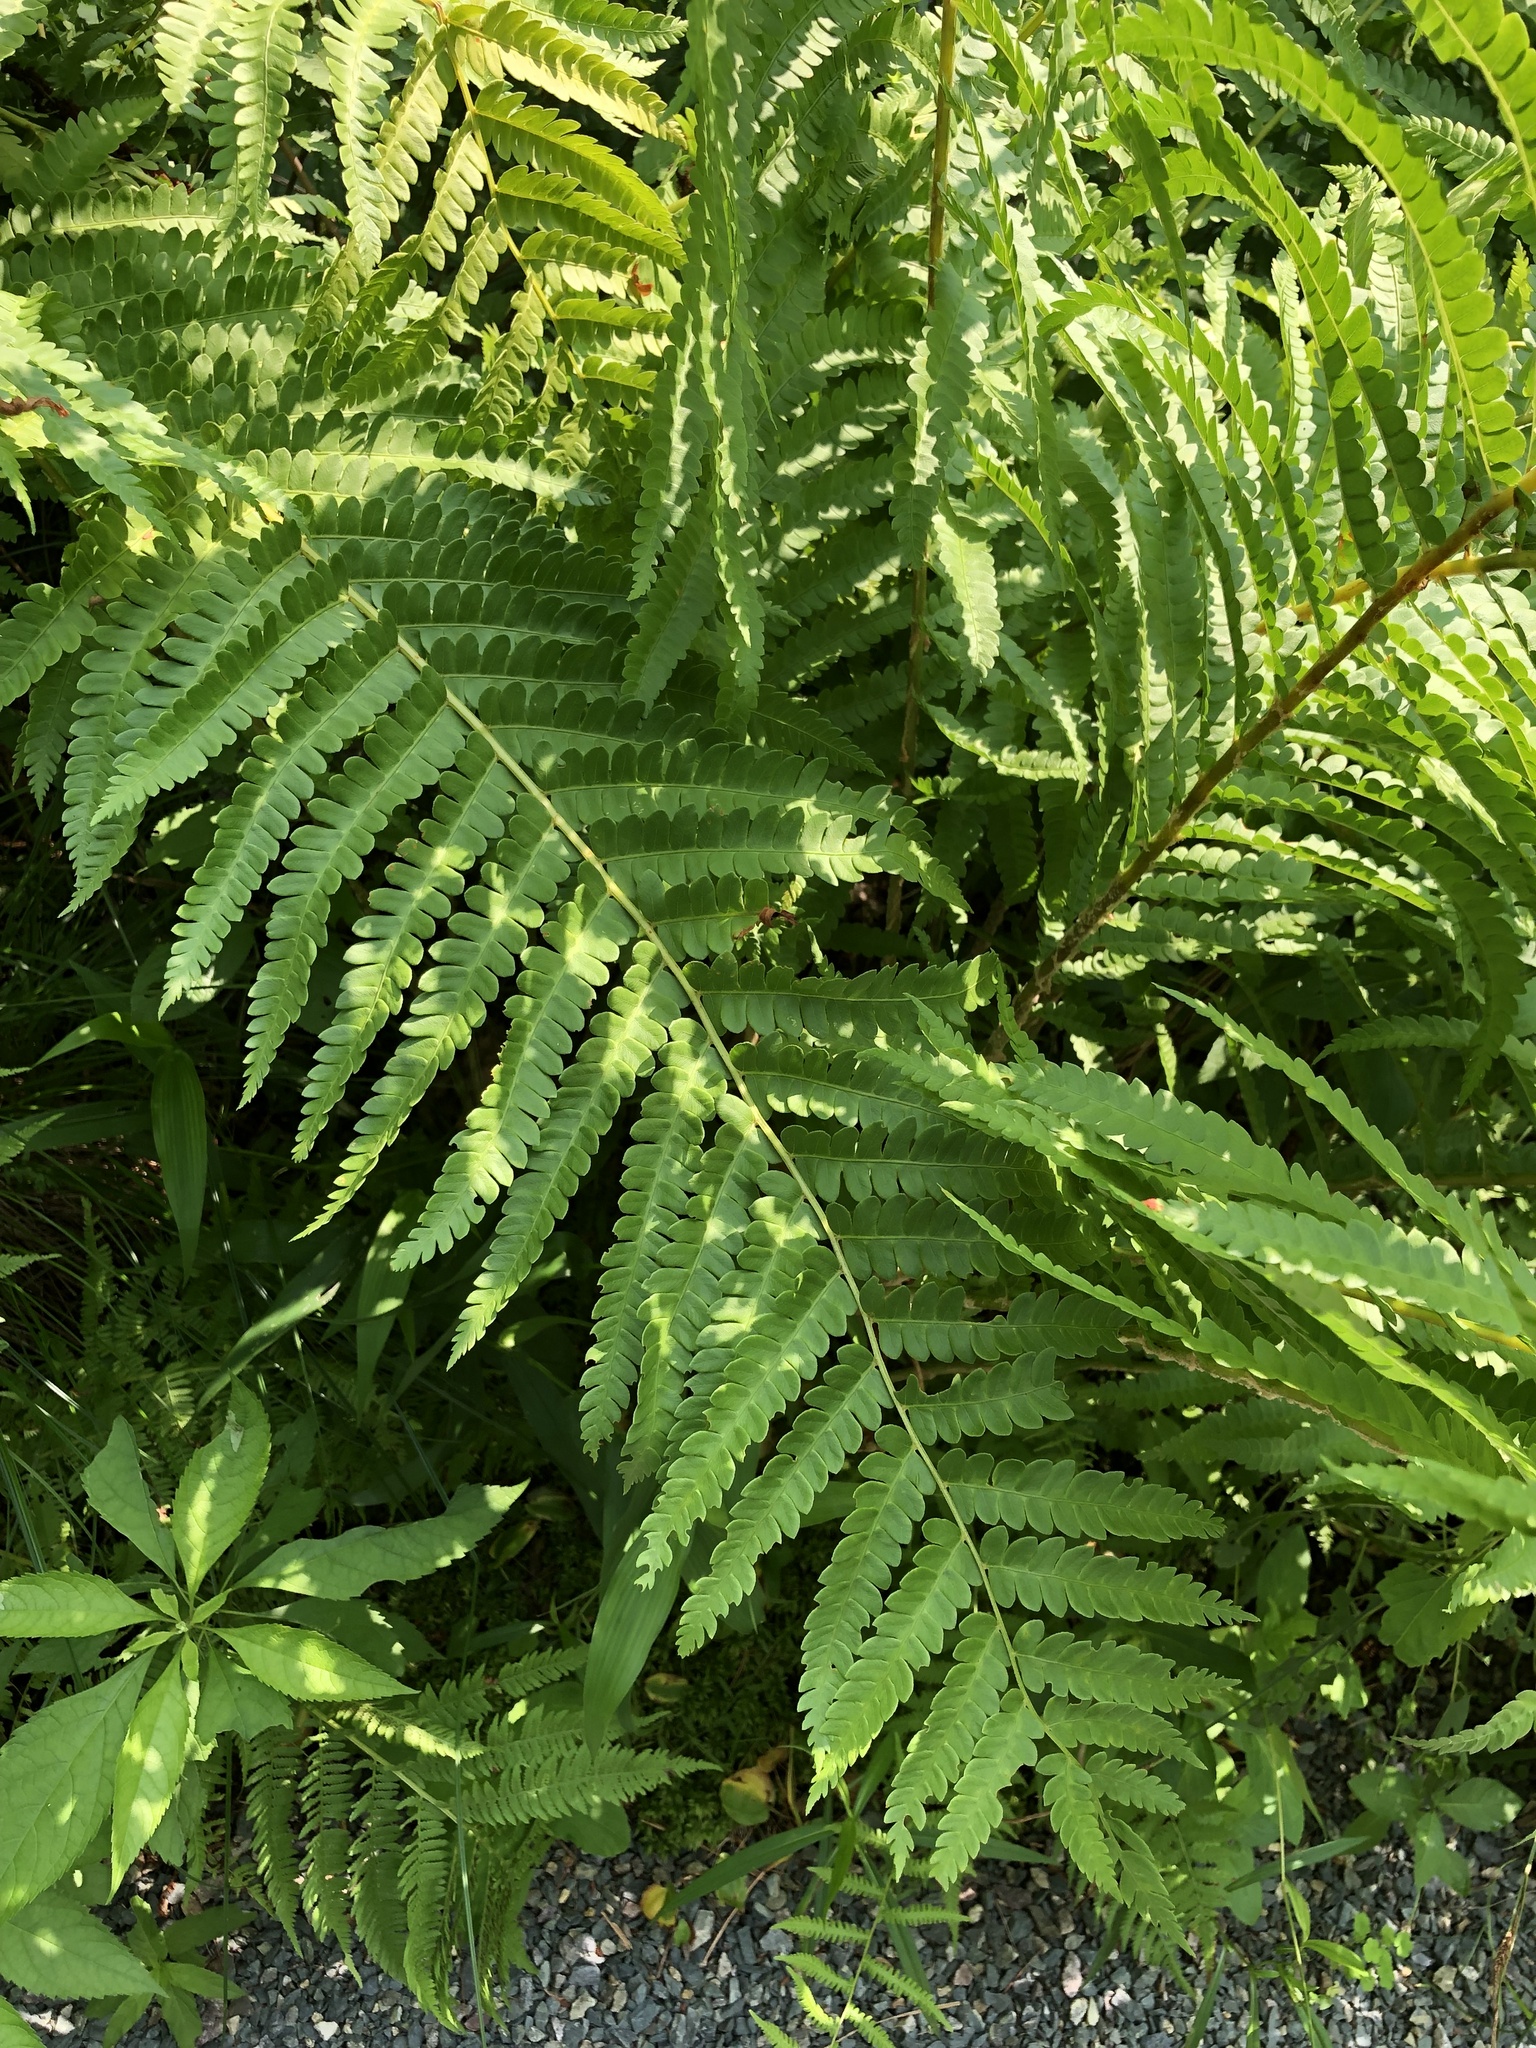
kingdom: Plantae
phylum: Tracheophyta
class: Polypodiopsida
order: Osmundales
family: Osmundaceae
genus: Osmundastrum
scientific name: Osmundastrum cinnamomeum
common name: Cinnamon fern
